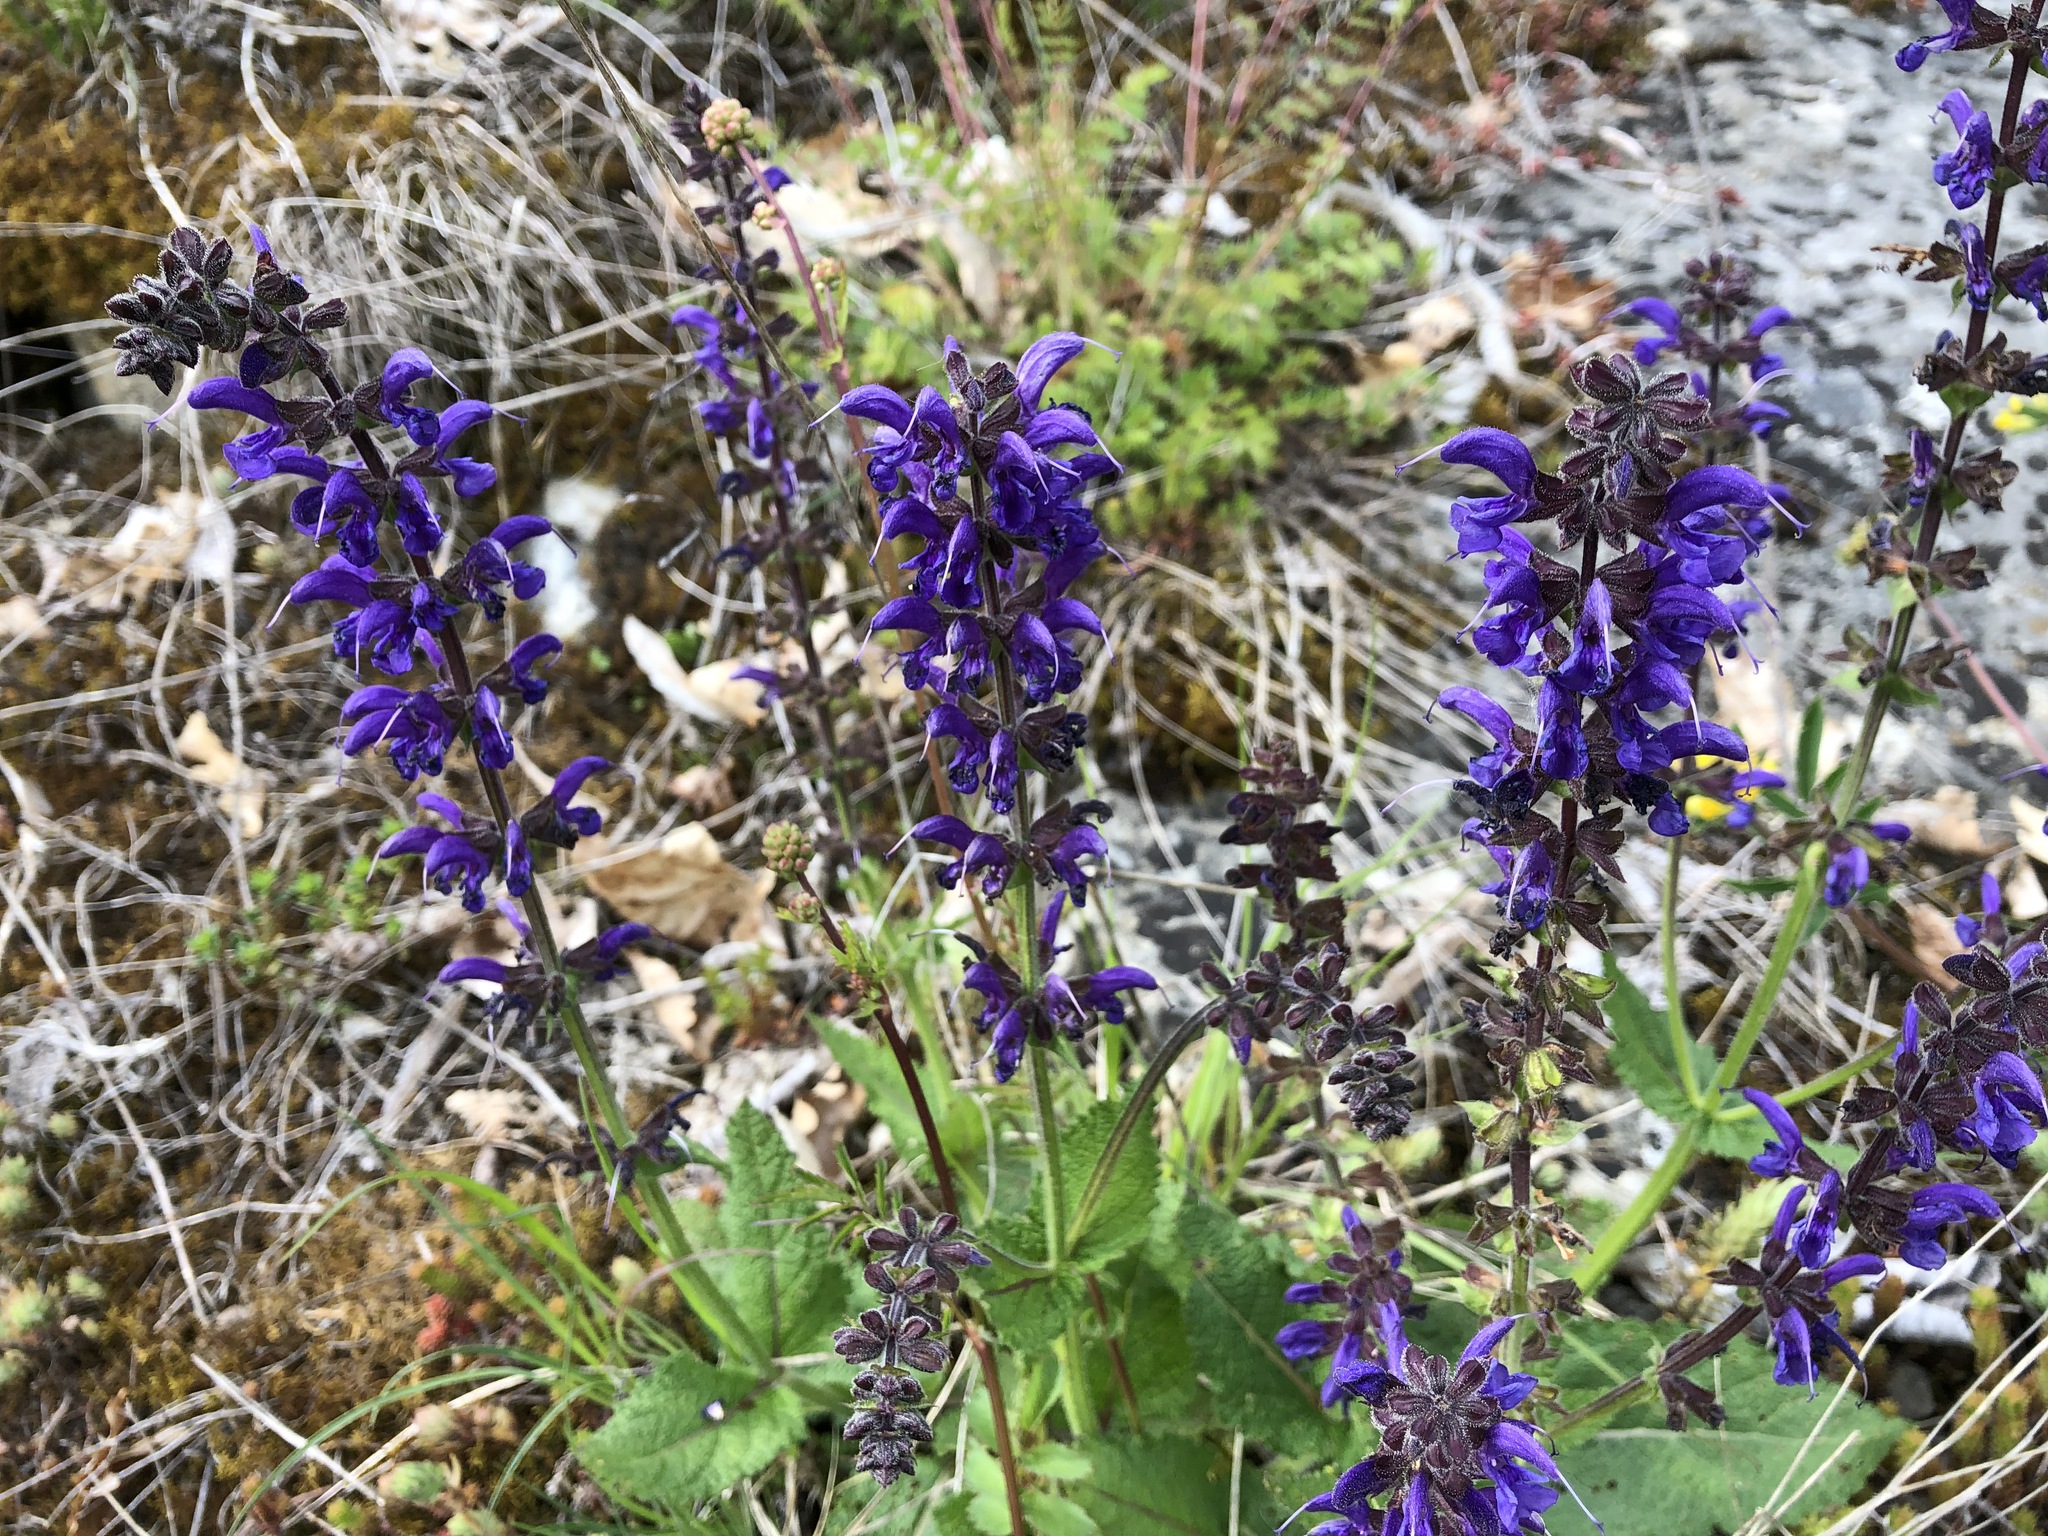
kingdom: Plantae
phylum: Tracheophyta
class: Magnoliopsida
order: Lamiales
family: Lamiaceae
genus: Salvia
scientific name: Salvia pratensis
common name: Meadow sage
